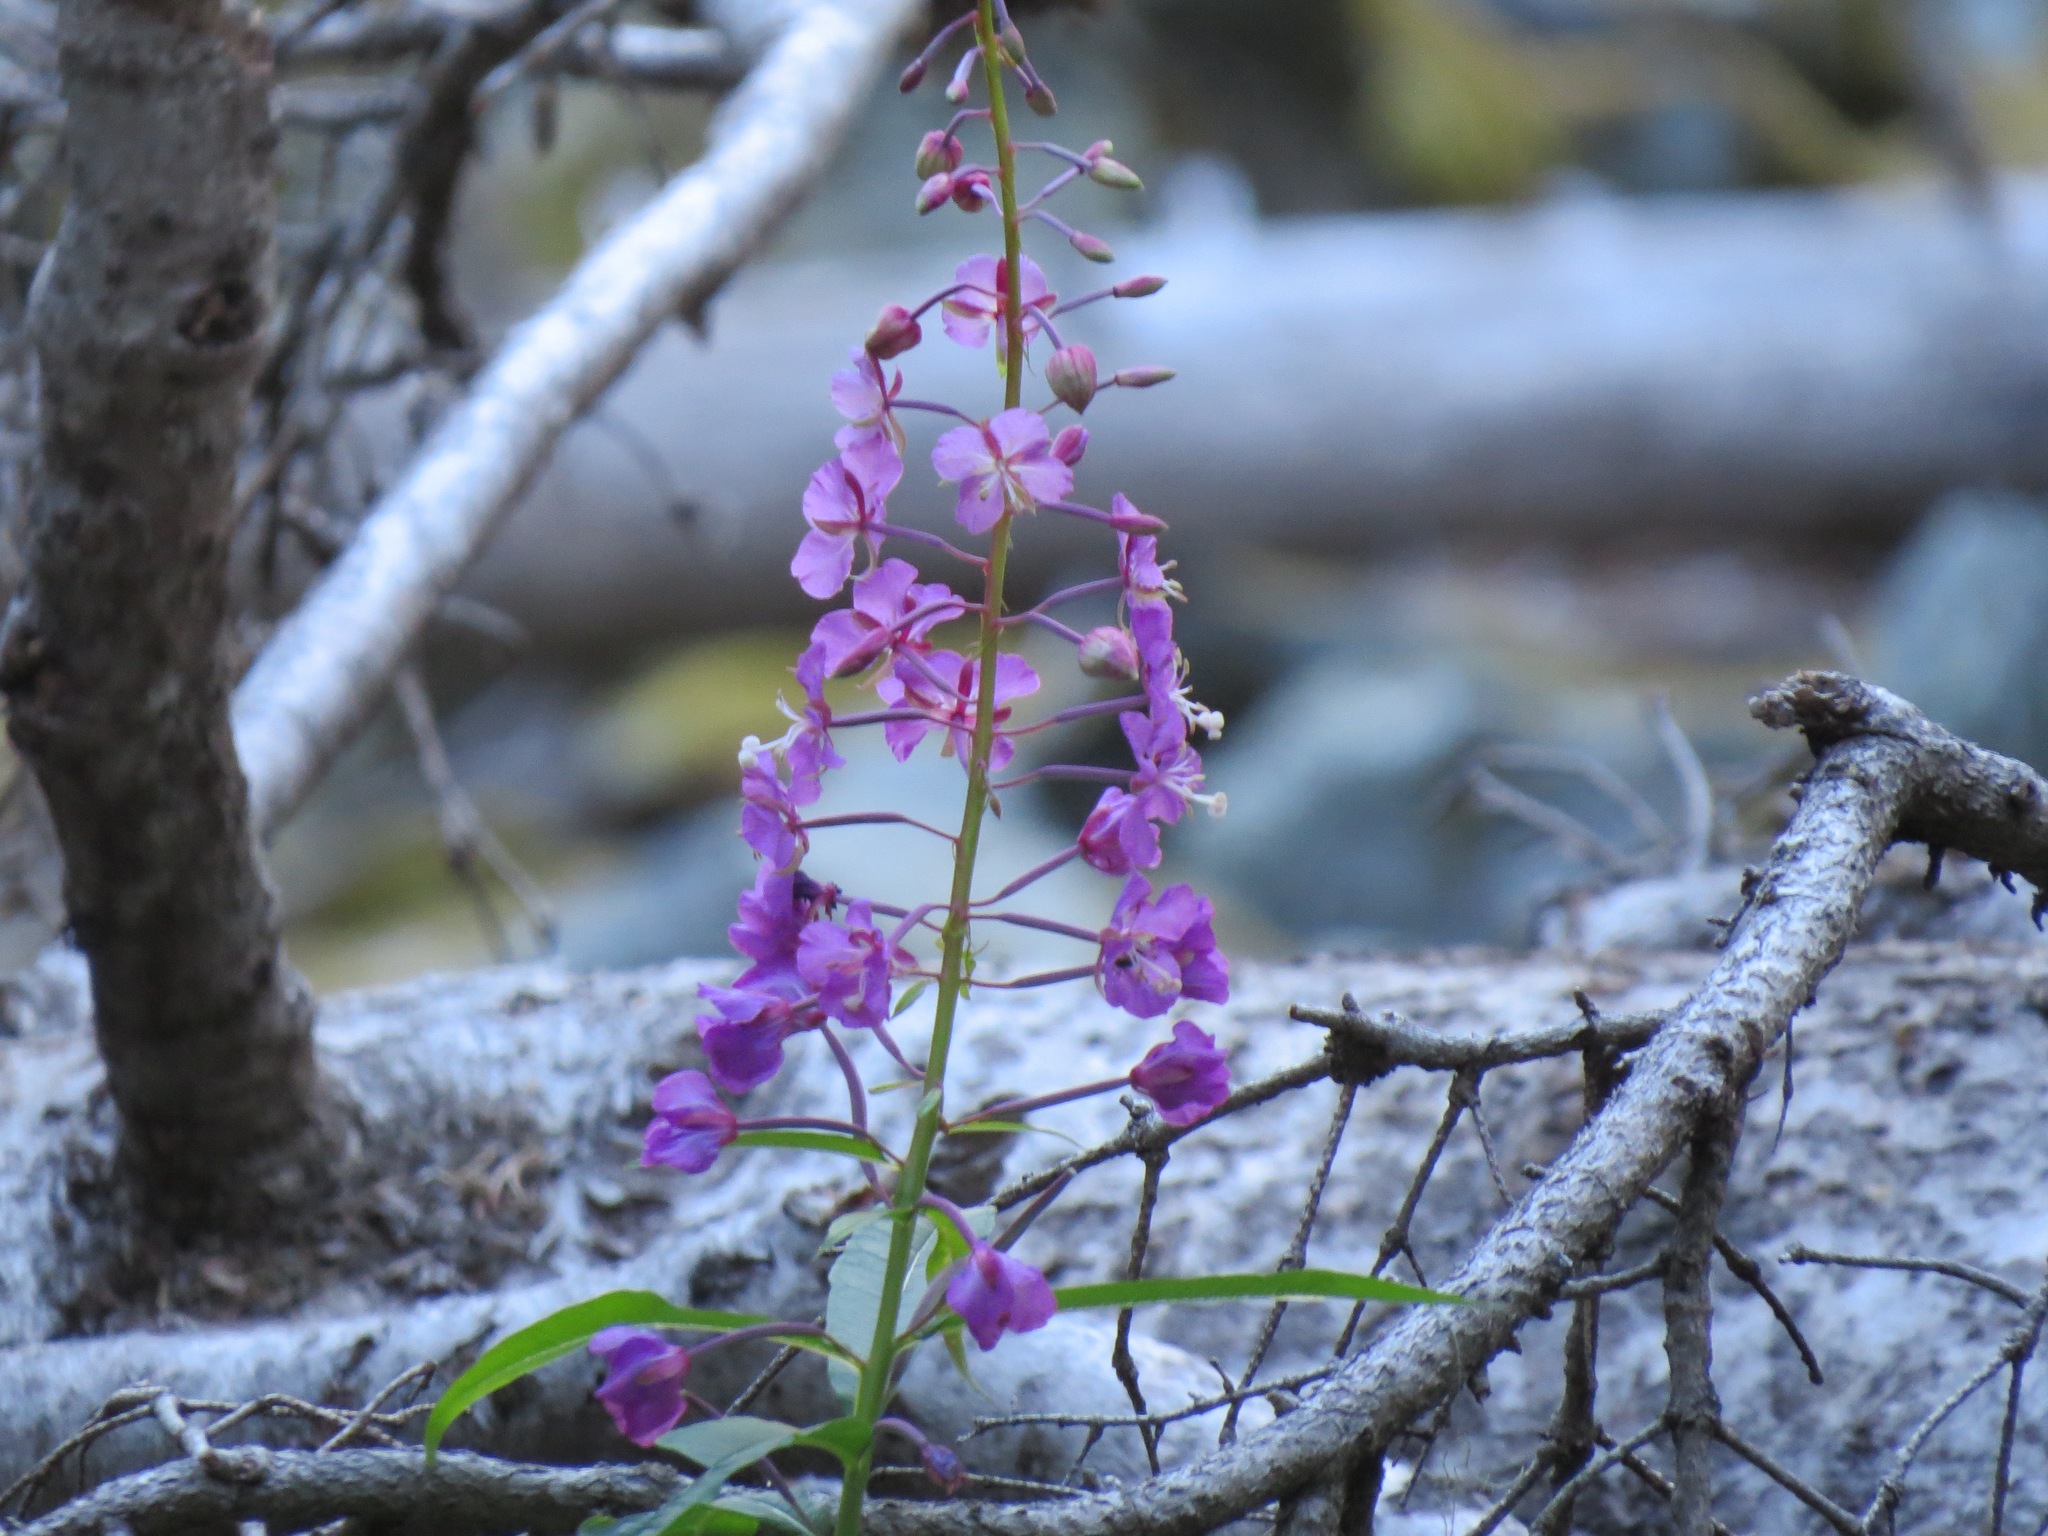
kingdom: Plantae
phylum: Tracheophyta
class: Magnoliopsida
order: Myrtales
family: Onagraceae
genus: Chamaenerion
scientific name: Chamaenerion angustifolium
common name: Fireweed
